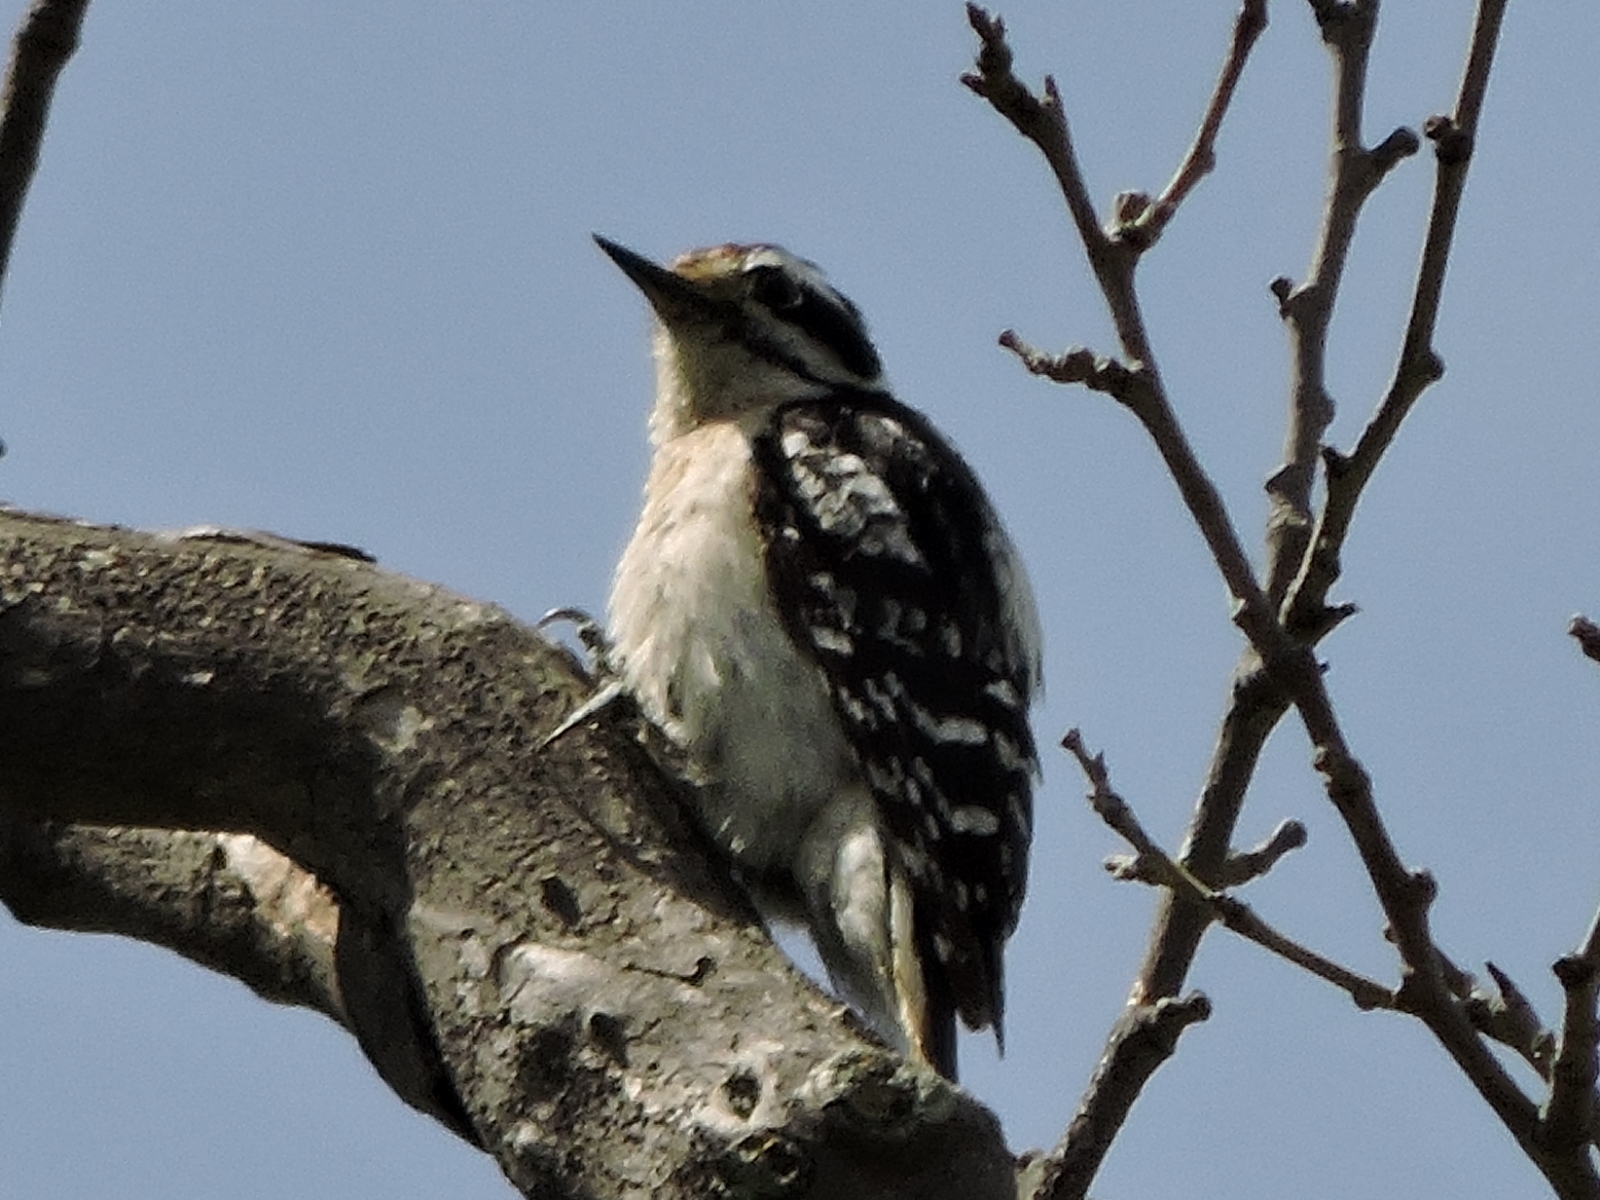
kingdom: Animalia
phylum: Chordata
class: Aves
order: Piciformes
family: Picidae
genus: Dryobates
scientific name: Dryobates pubescens
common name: Downy woodpecker
